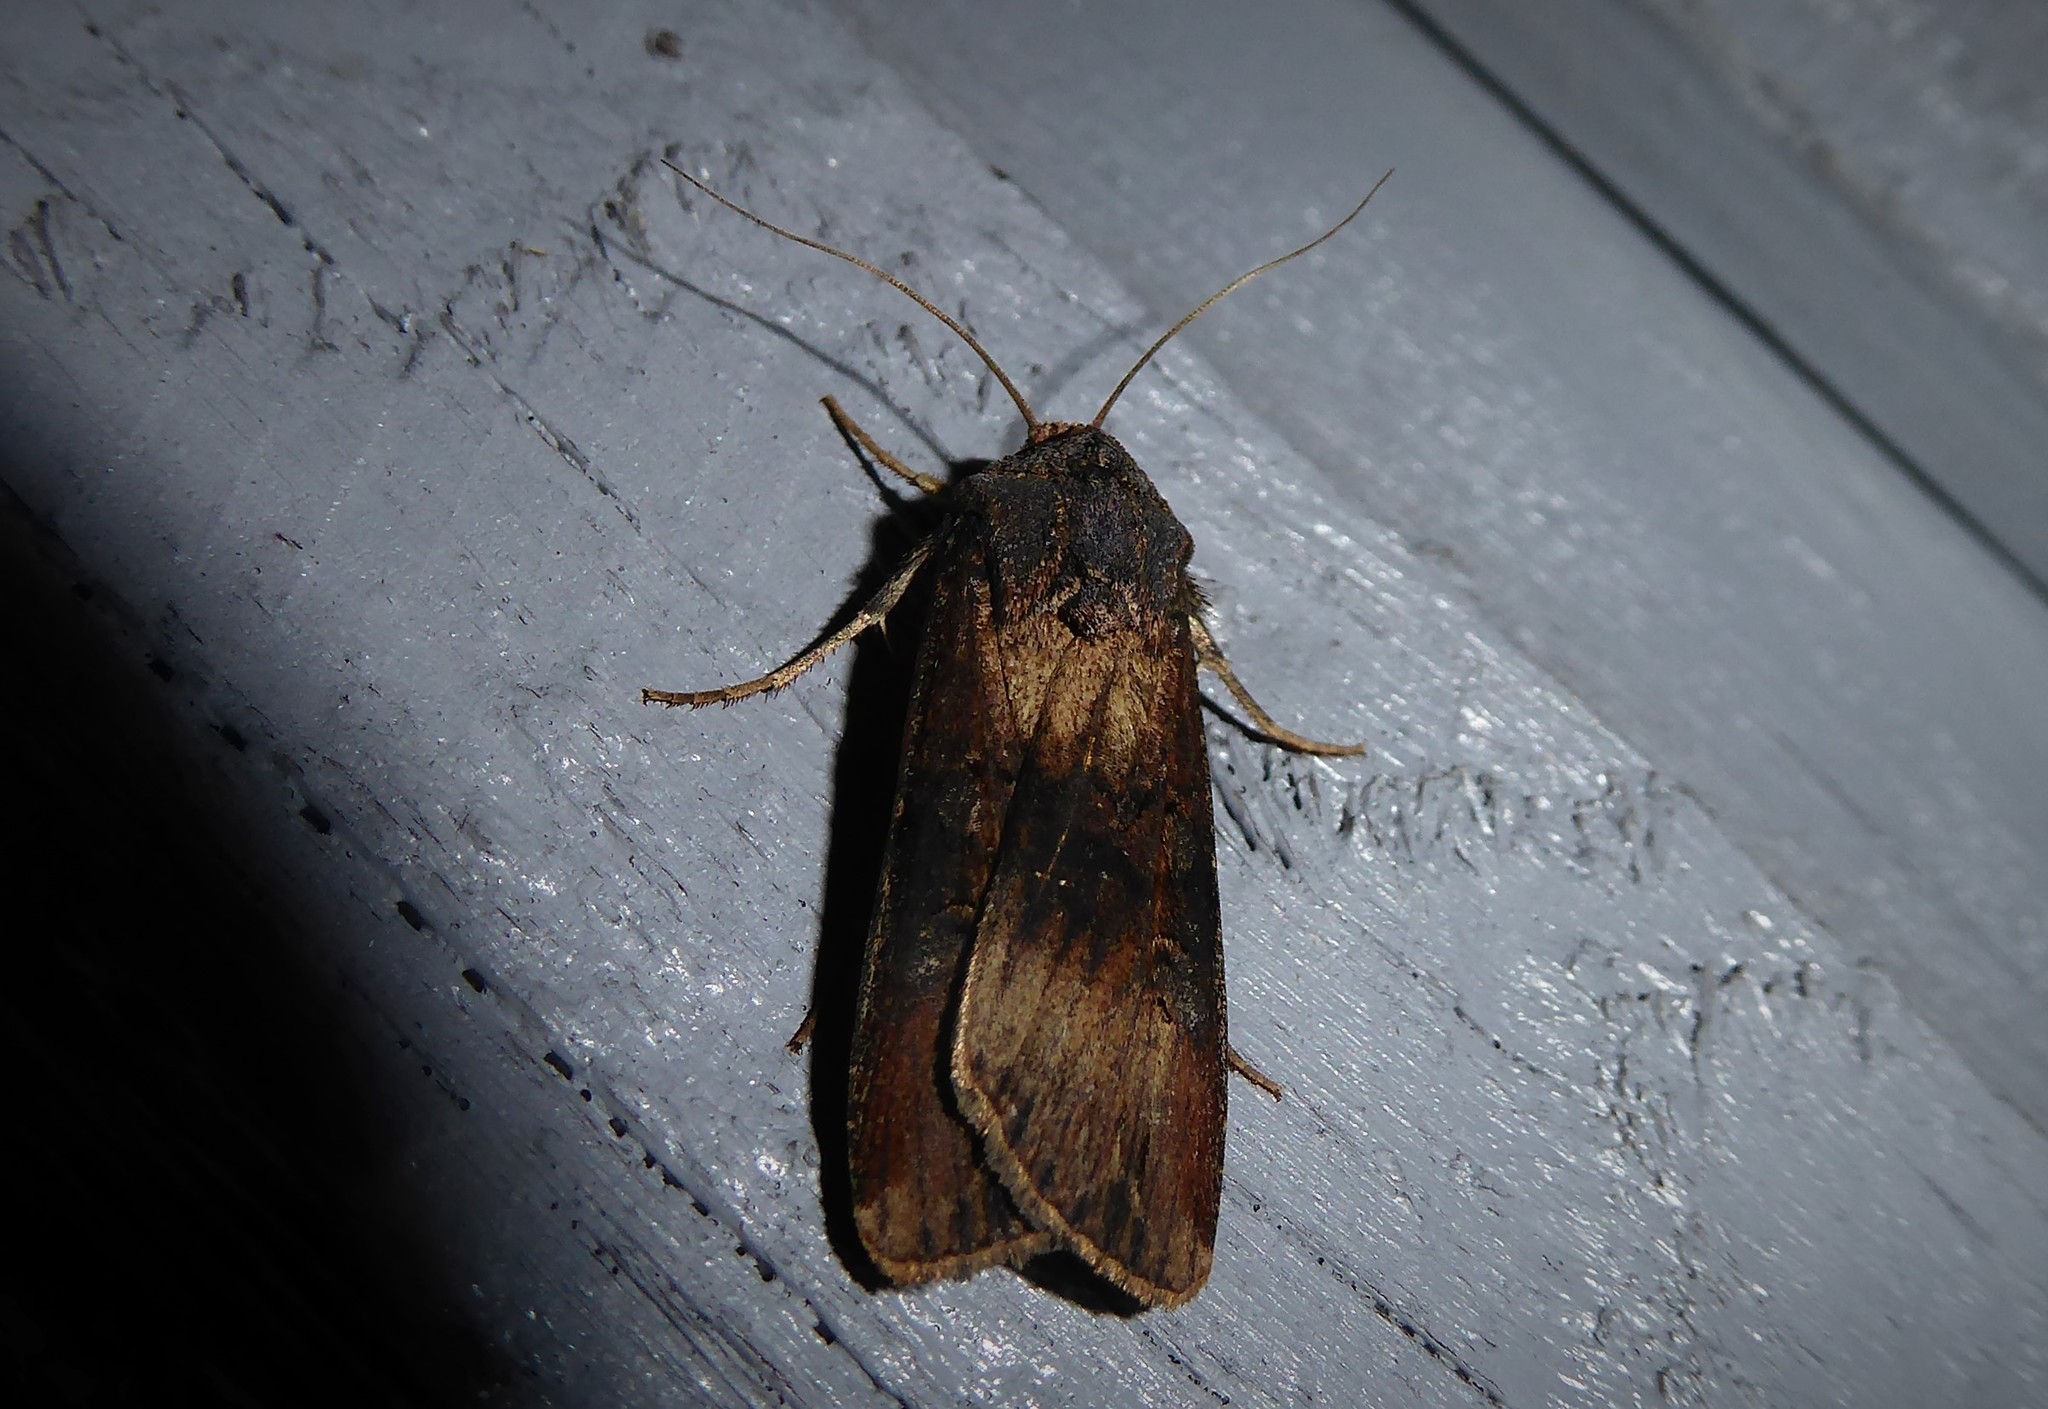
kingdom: Animalia
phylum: Arthropoda
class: Insecta
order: Lepidoptera
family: Noctuidae
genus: Agrotis
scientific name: Agrotis ipsilon
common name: Dark sword-grass
